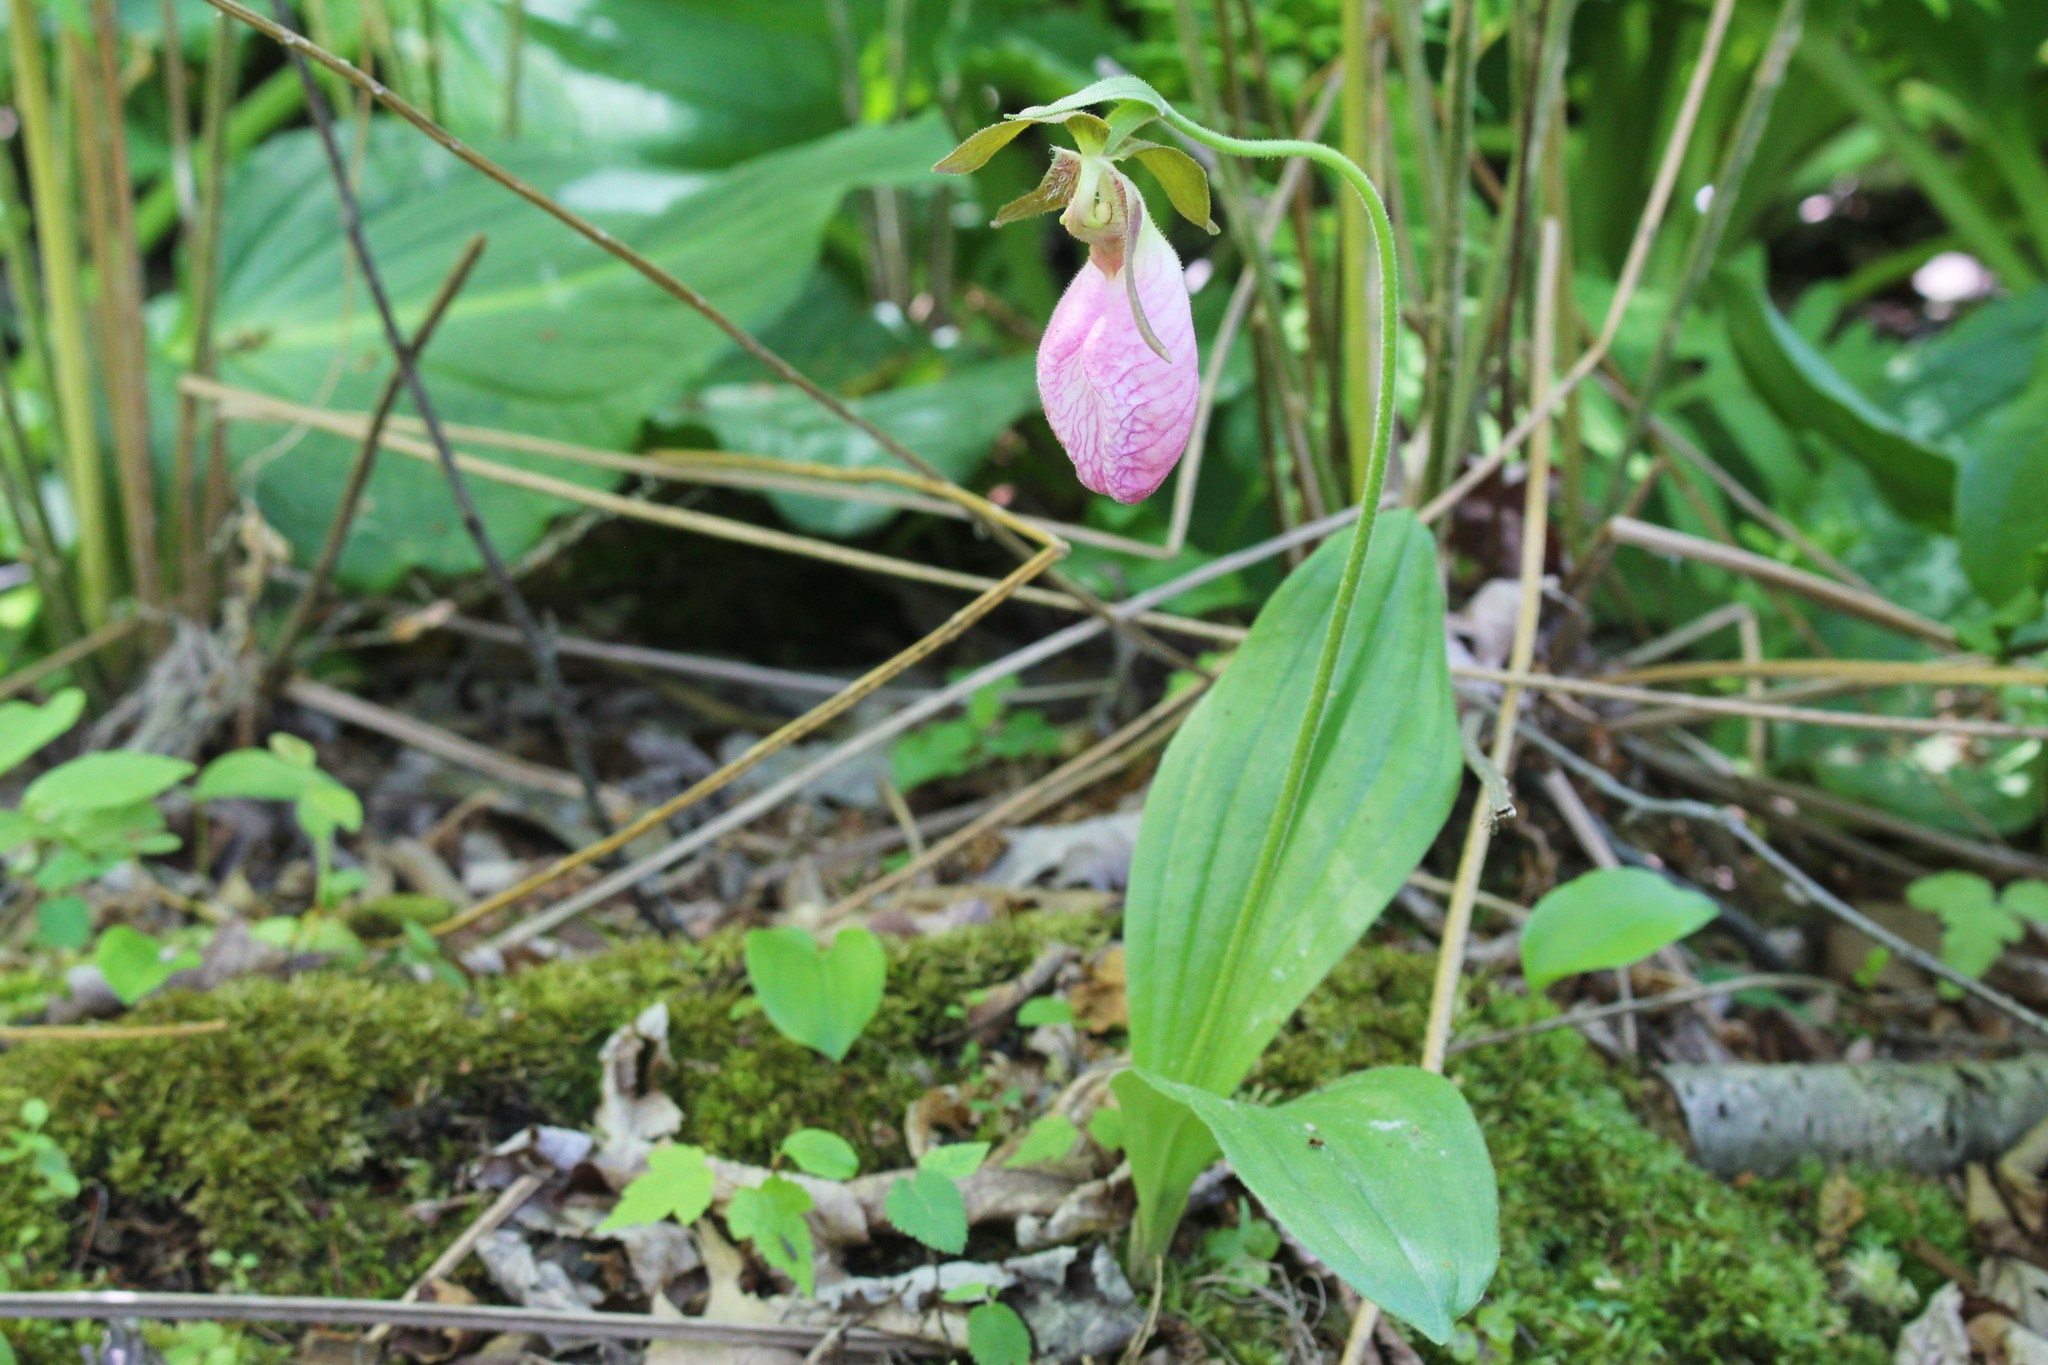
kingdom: Plantae
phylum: Tracheophyta
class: Liliopsida
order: Asparagales
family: Orchidaceae
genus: Cypripedium
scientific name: Cypripedium acaule
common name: Pink lady's-slipper
